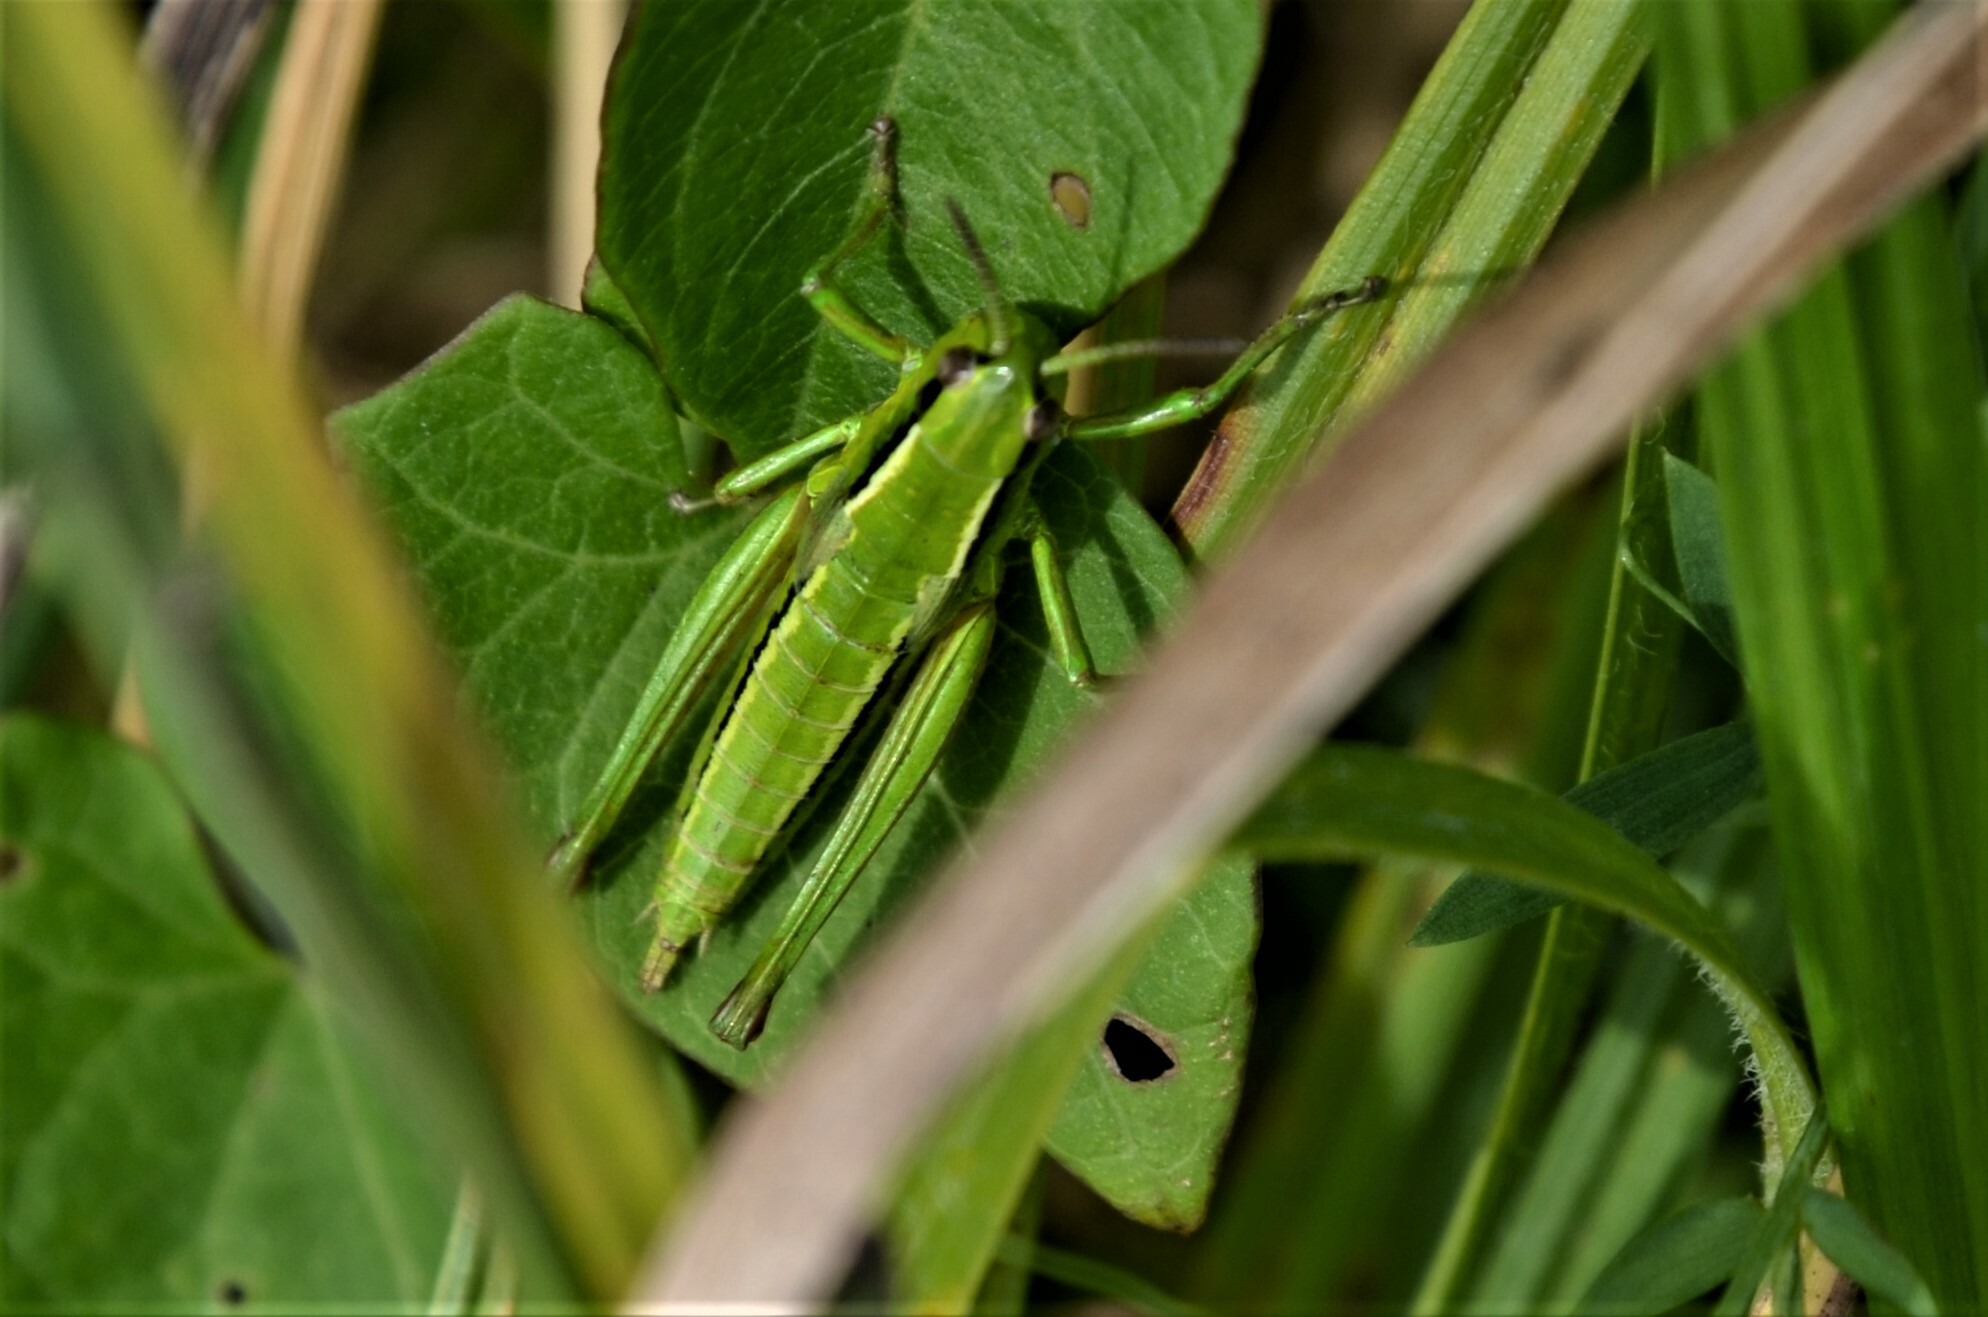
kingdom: Animalia
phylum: Arthropoda
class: Insecta
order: Orthoptera
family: Acrididae
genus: Euthystira
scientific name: Euthystira brachyptera
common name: Small gold grasshopper
